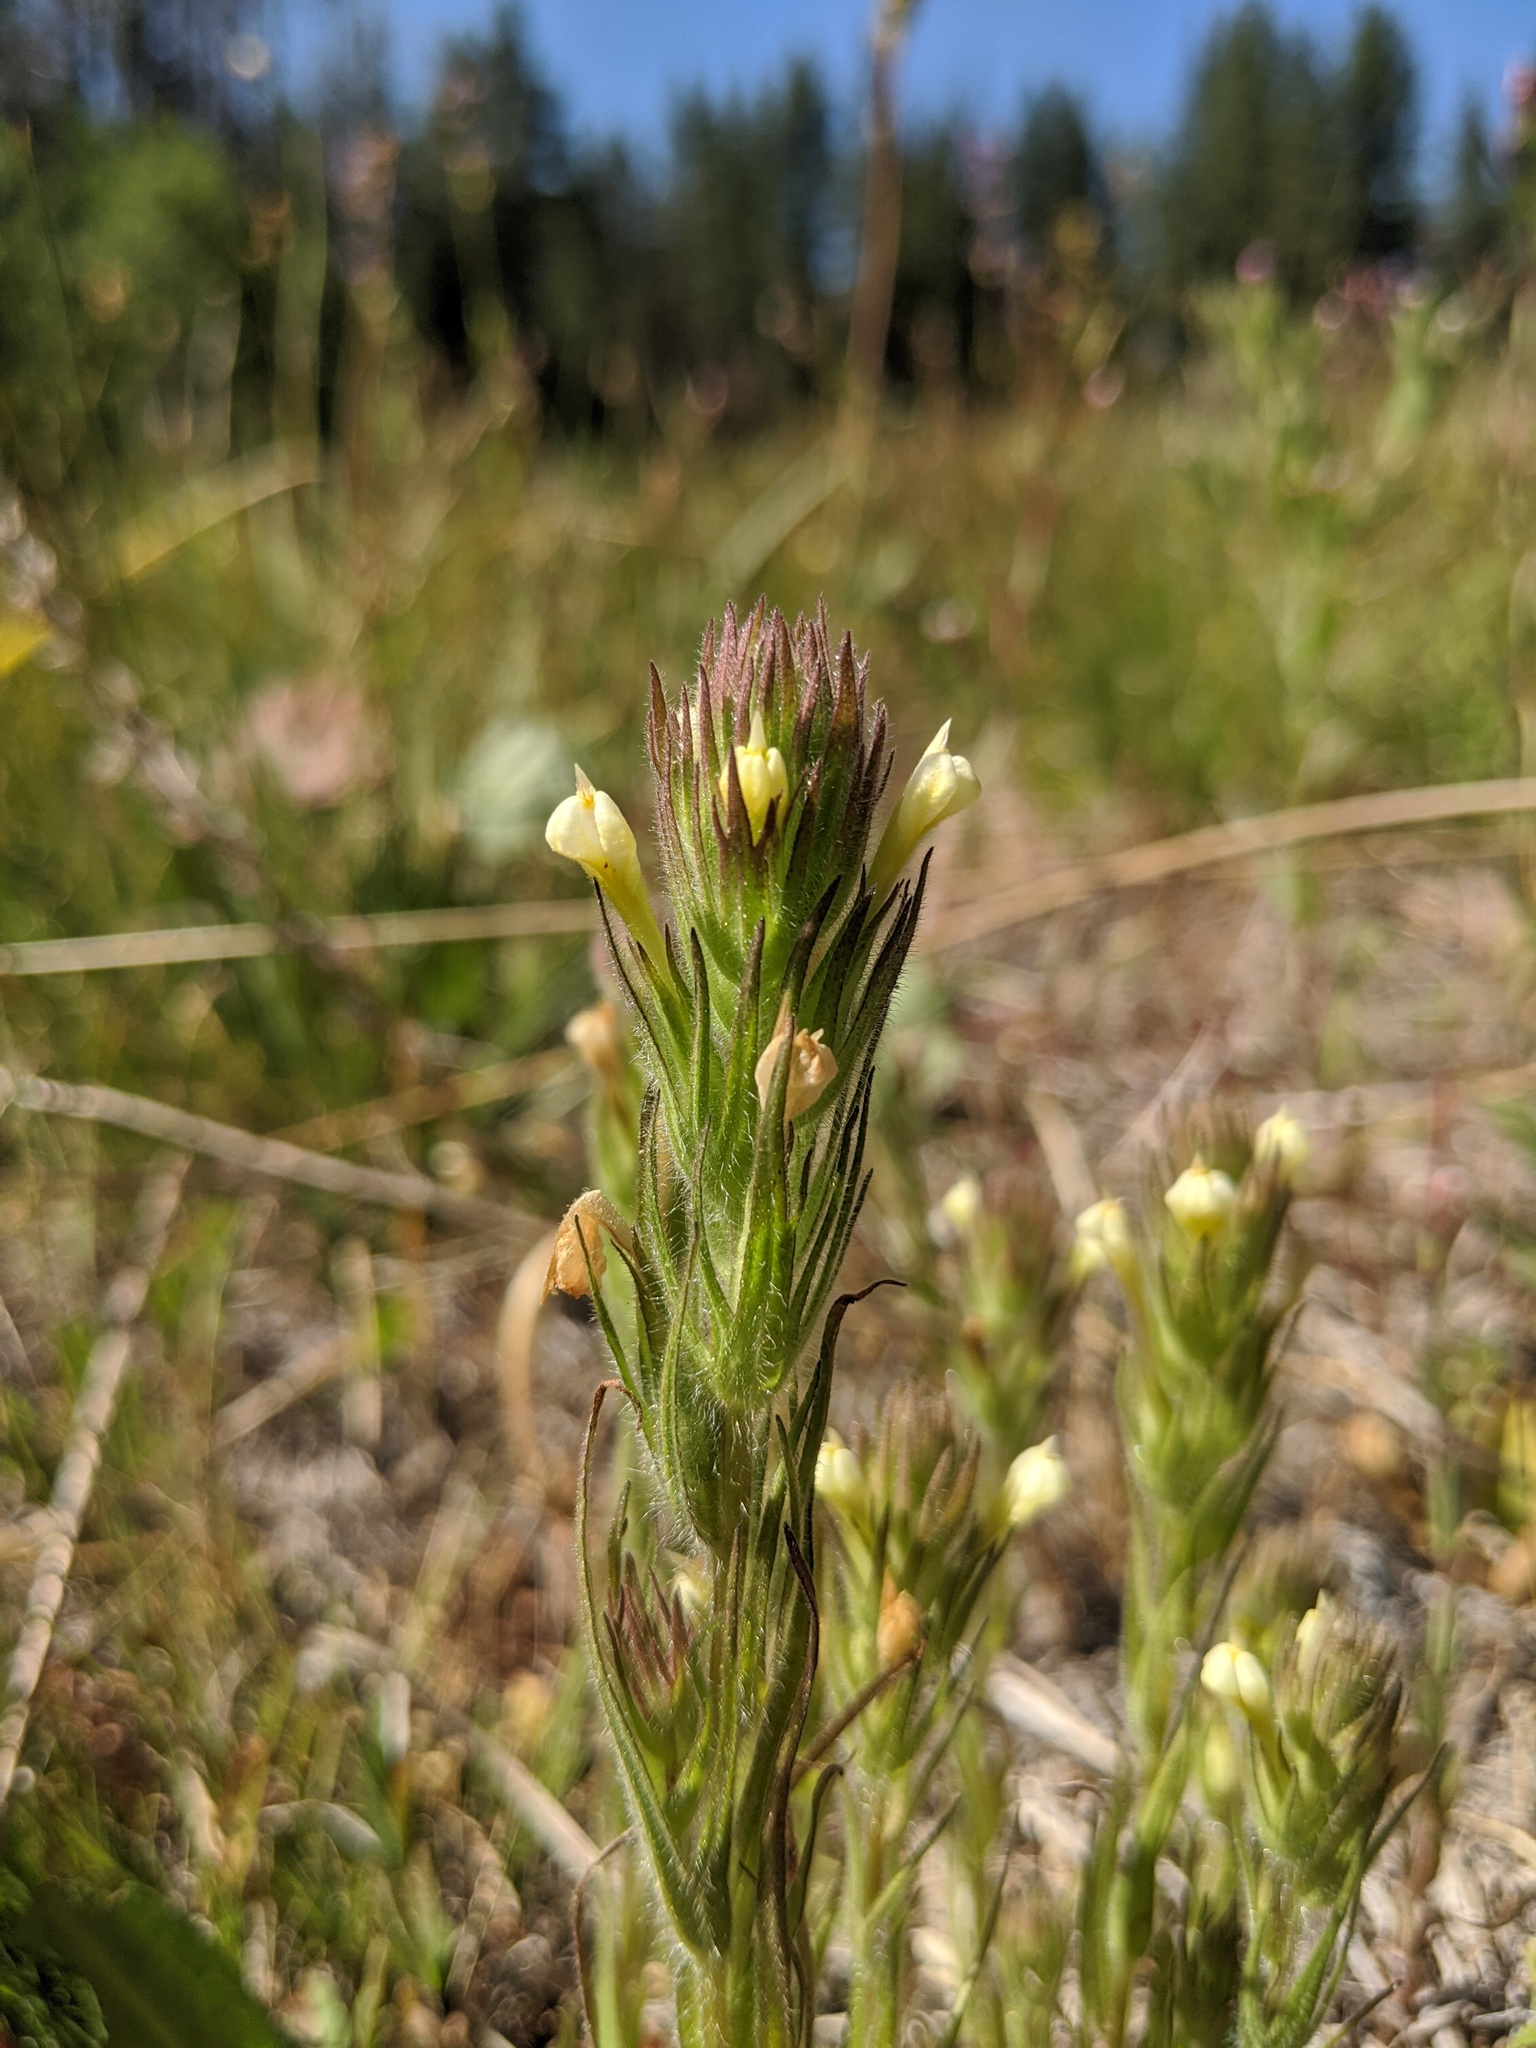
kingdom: Plantae
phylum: Tracheophyta
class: Magnoliopsida
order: Lamiales
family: Orobanchaceae
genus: Castilleja
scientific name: Castilleja tenuis
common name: Hairy indian paintbrush
